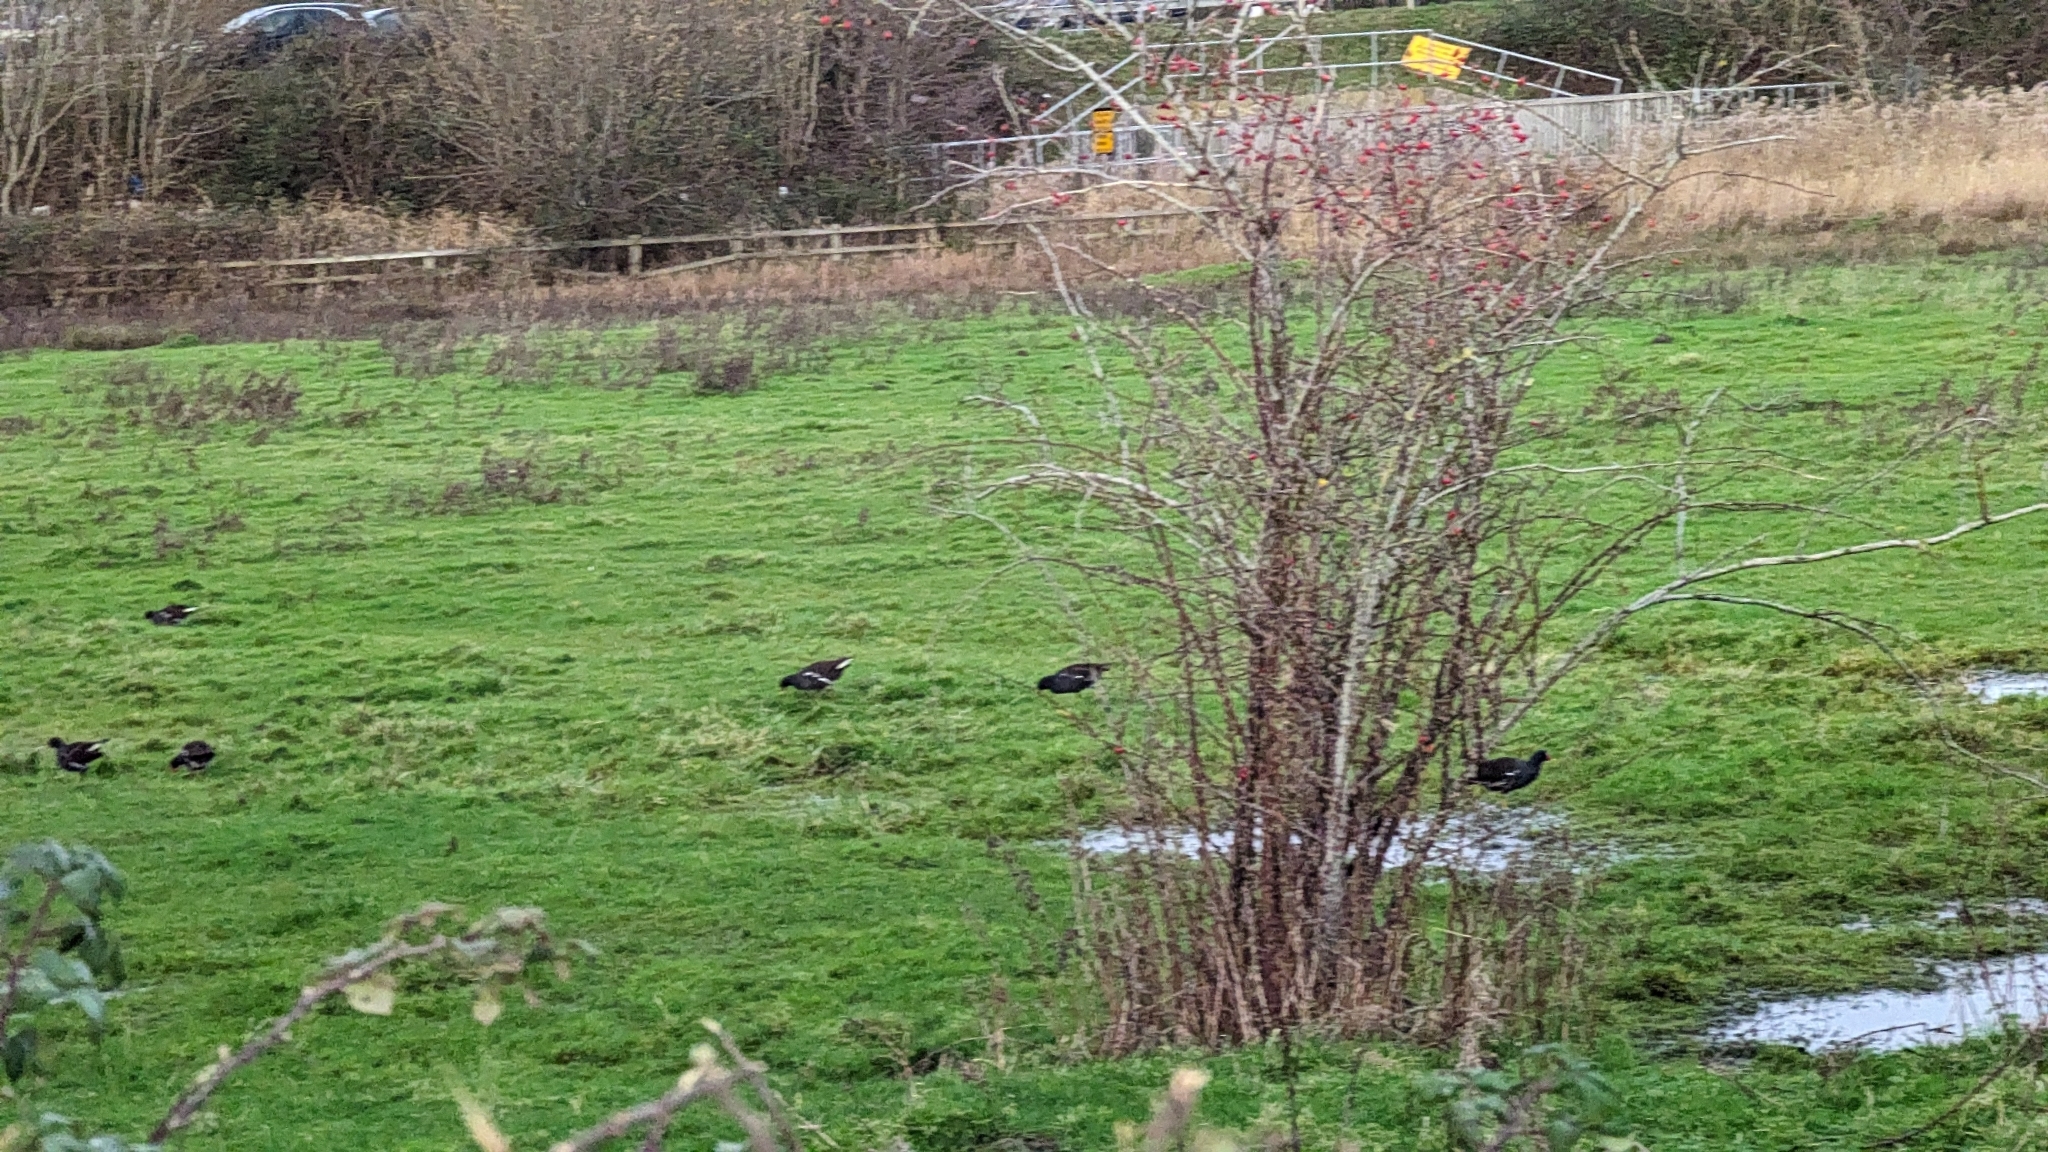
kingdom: Animalia
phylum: Chordata
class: Aves
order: Gruiformes
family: Rallidae
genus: Gallinula
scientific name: Gallinula chloropus
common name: Common moorhen
